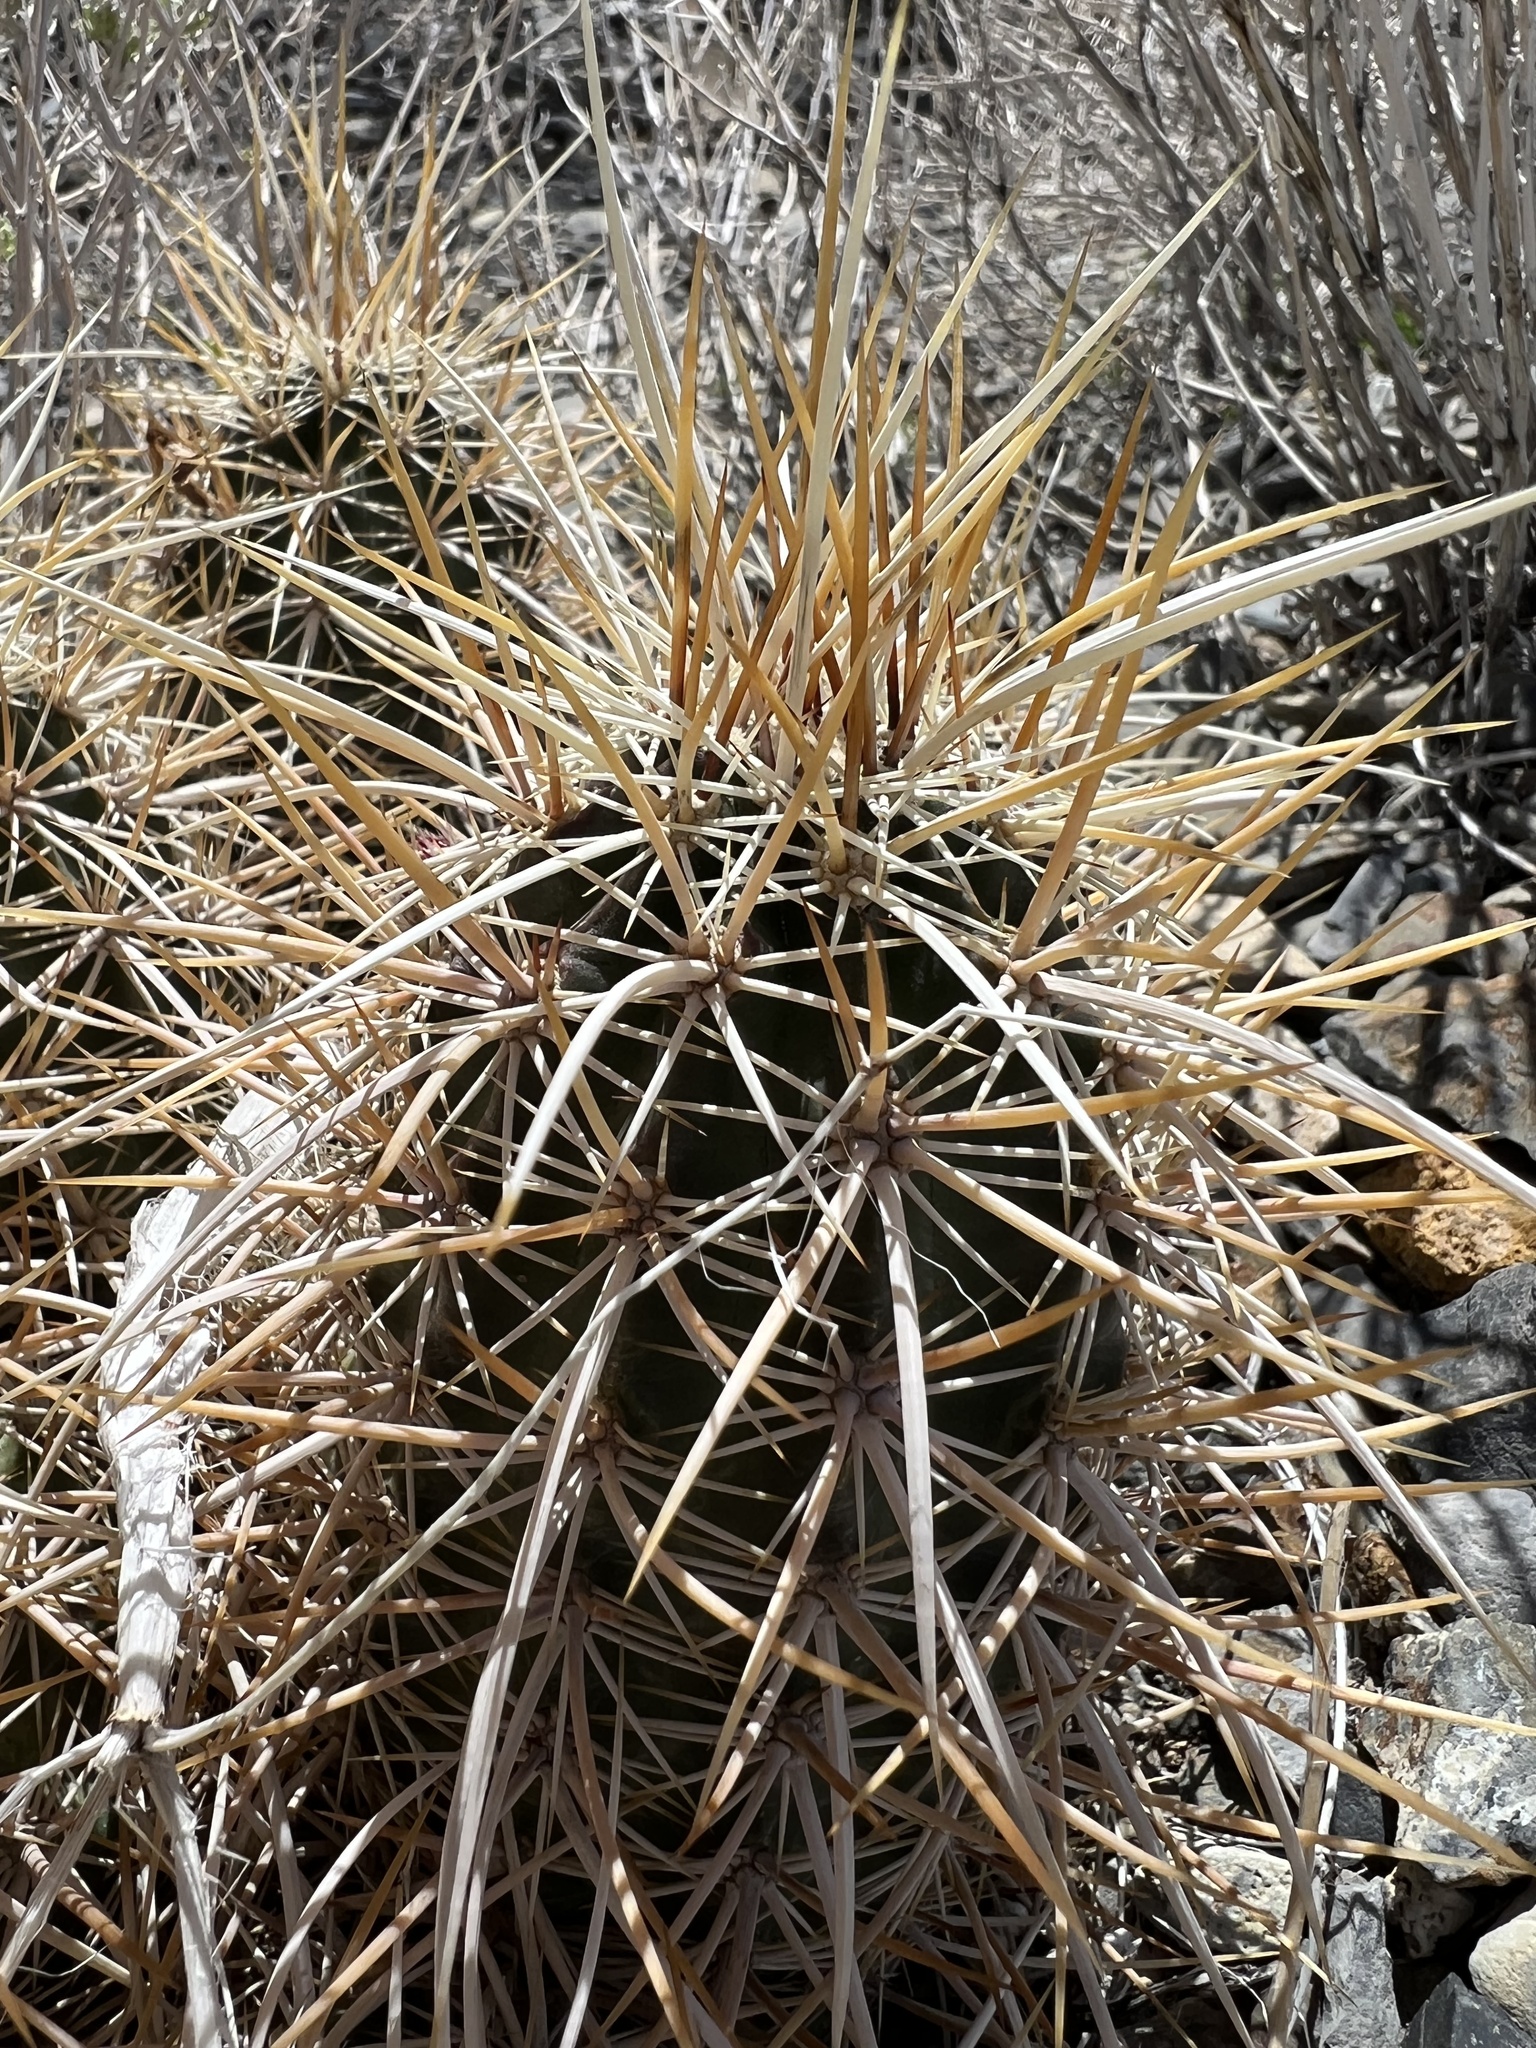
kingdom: Plantae
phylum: Tracheophyta
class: Magnoliopsida
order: Caryophyllales
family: Cactaceae
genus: Echinocereus
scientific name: Echinocereus engelmannii
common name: Engelmann's hedgehog cactus
